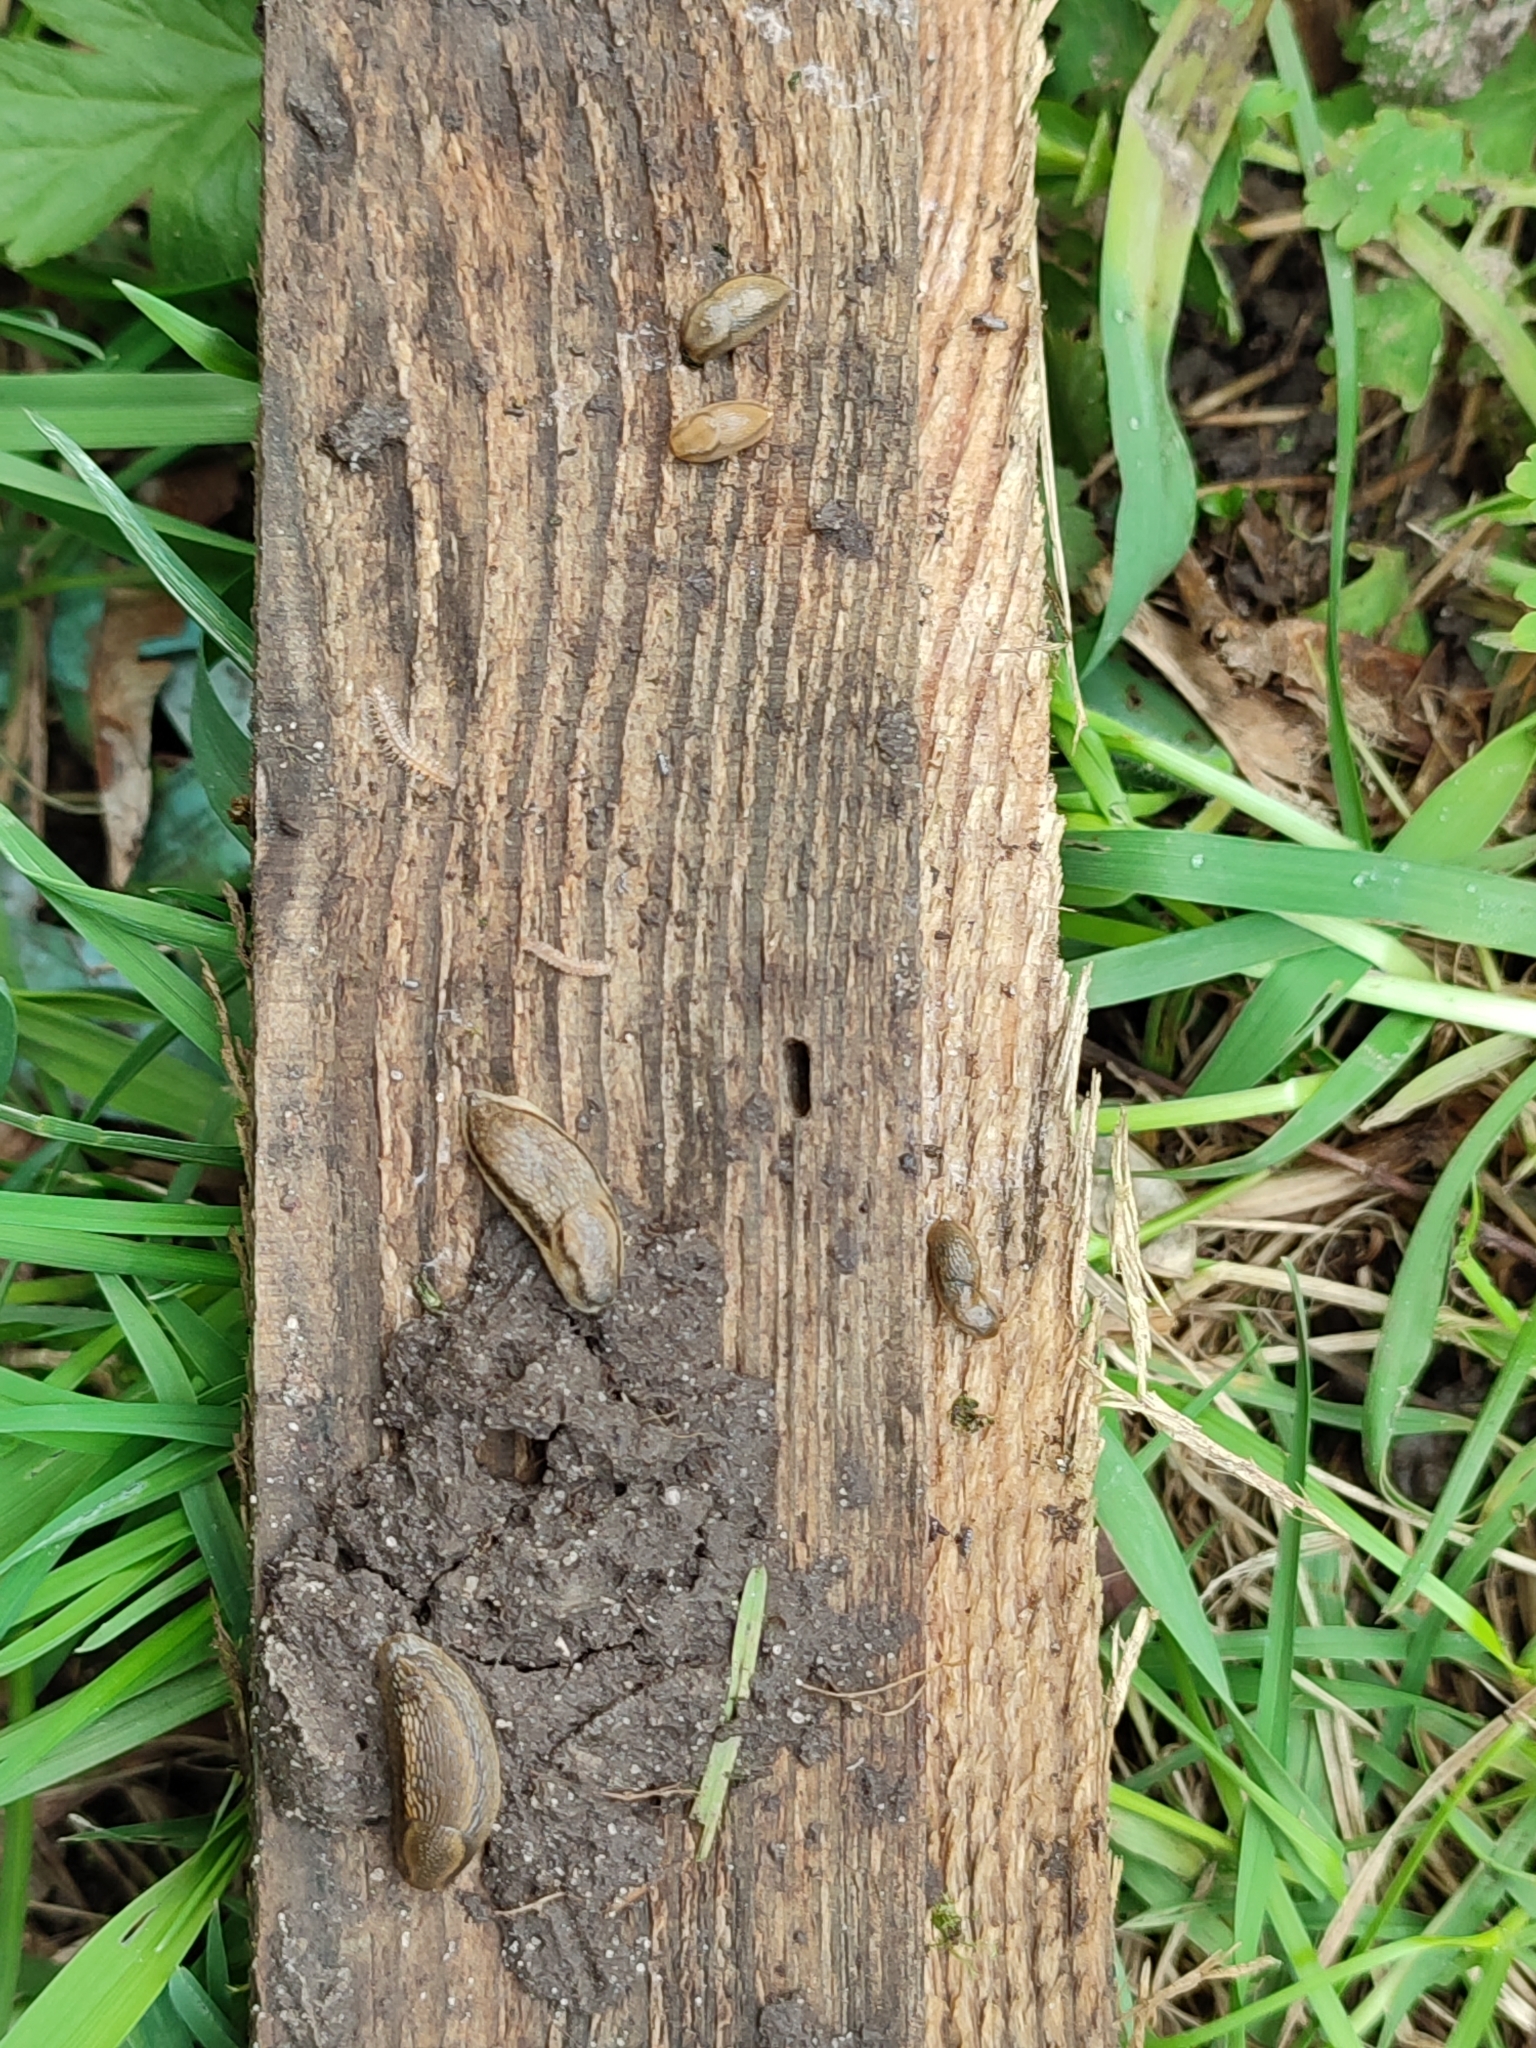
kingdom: Animalia
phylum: Mollusca
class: Gastropoda
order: Stylommatophora
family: Arionidae
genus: Arion
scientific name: Arion vulgaris
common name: Lusitanian slug
